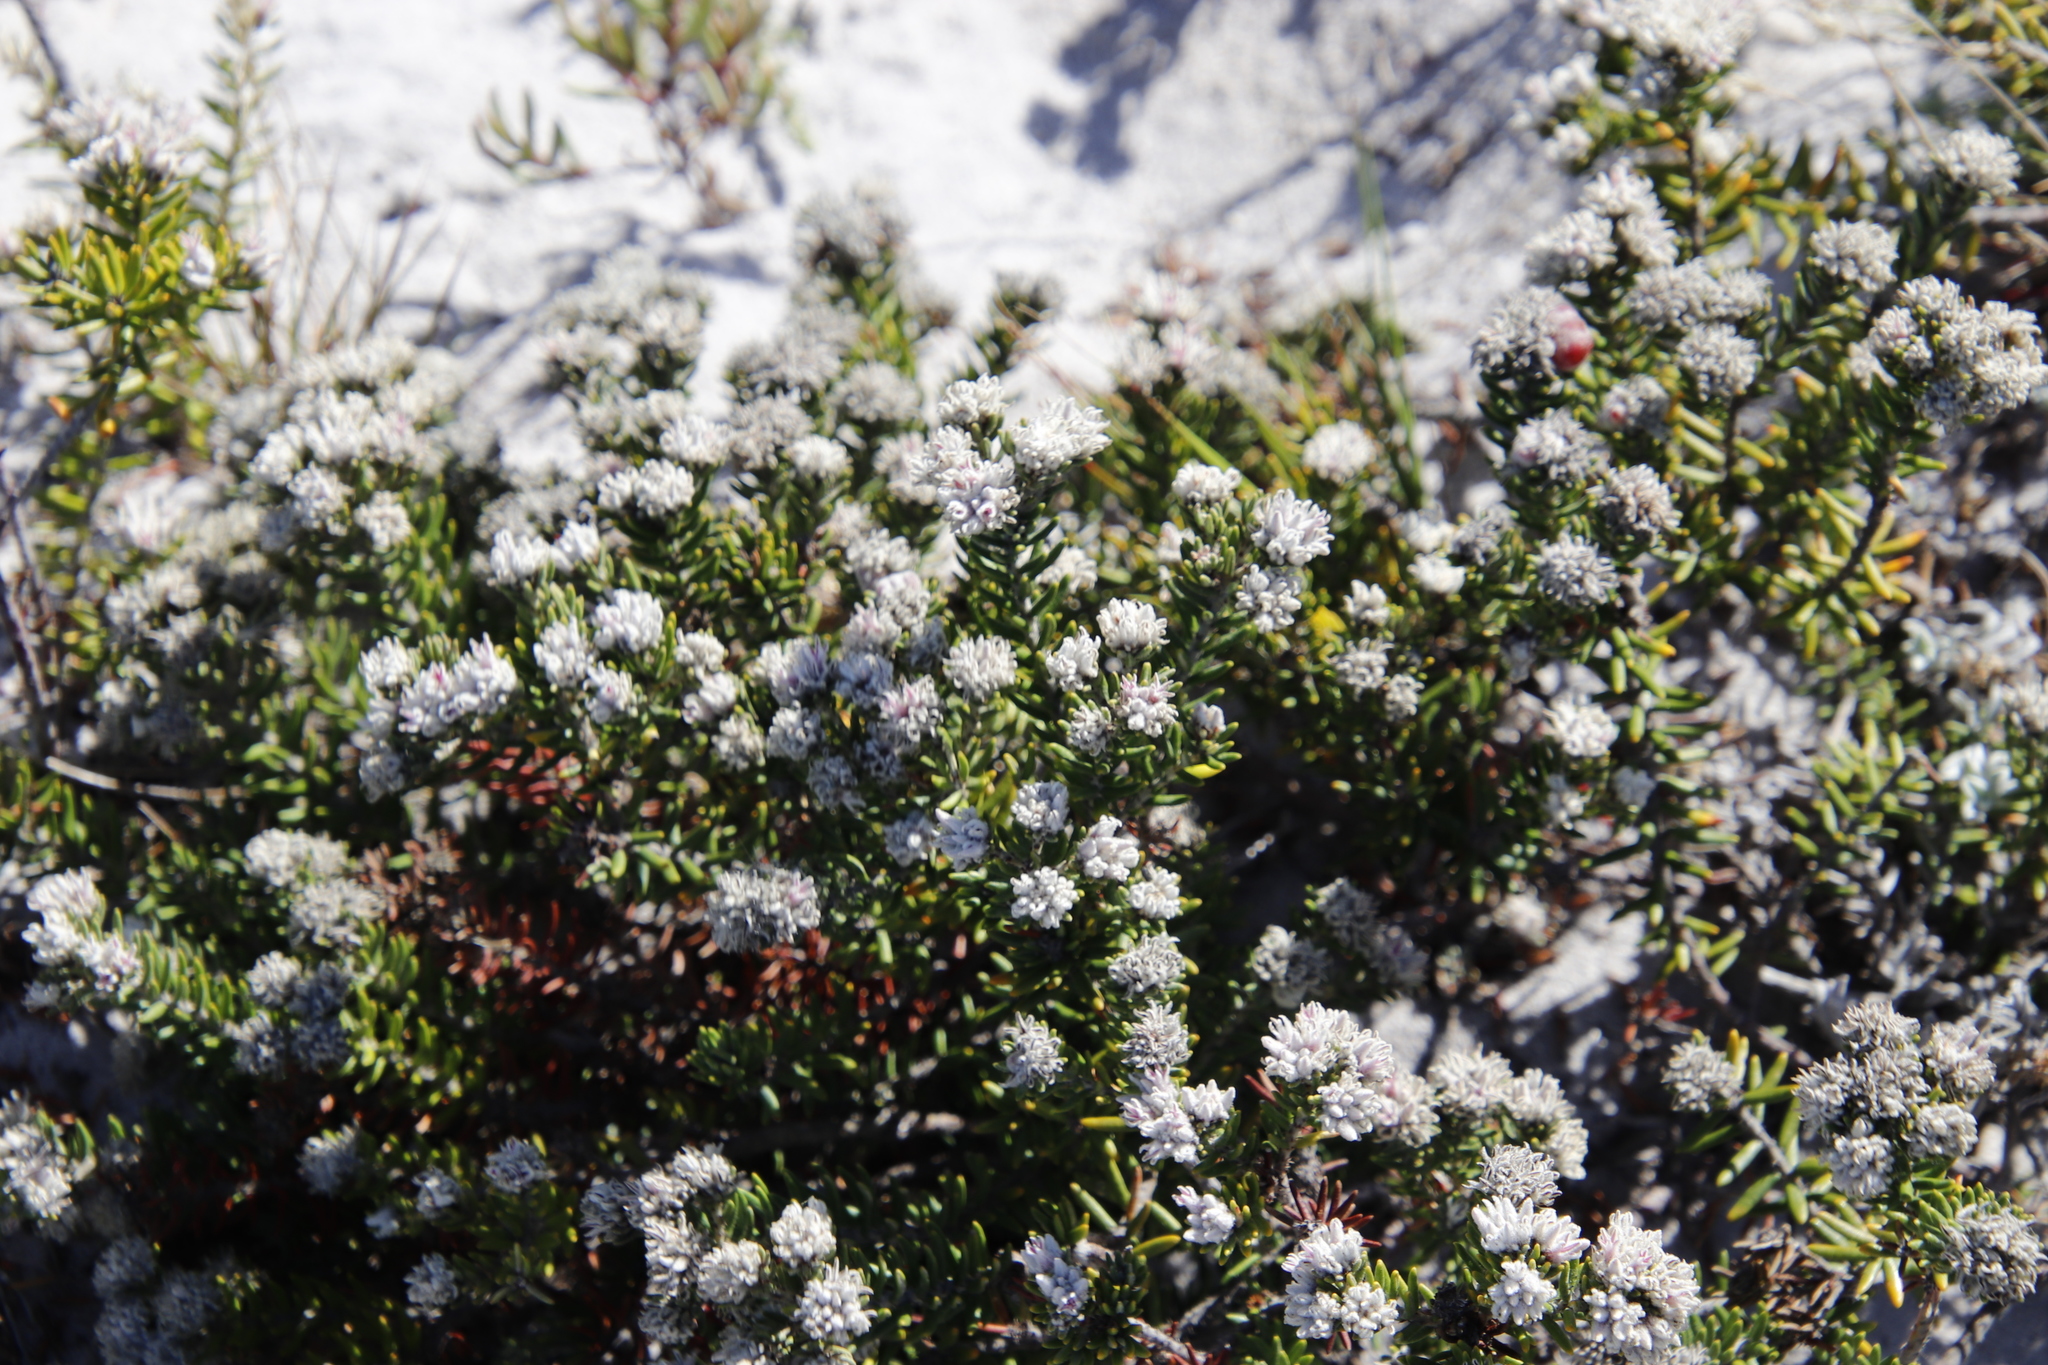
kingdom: Plantae
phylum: Tracheophyta
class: Magnoliopsida
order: Rosales
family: Rhamnaceae
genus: Trichocephalus
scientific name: Trichocephalus stipularis
